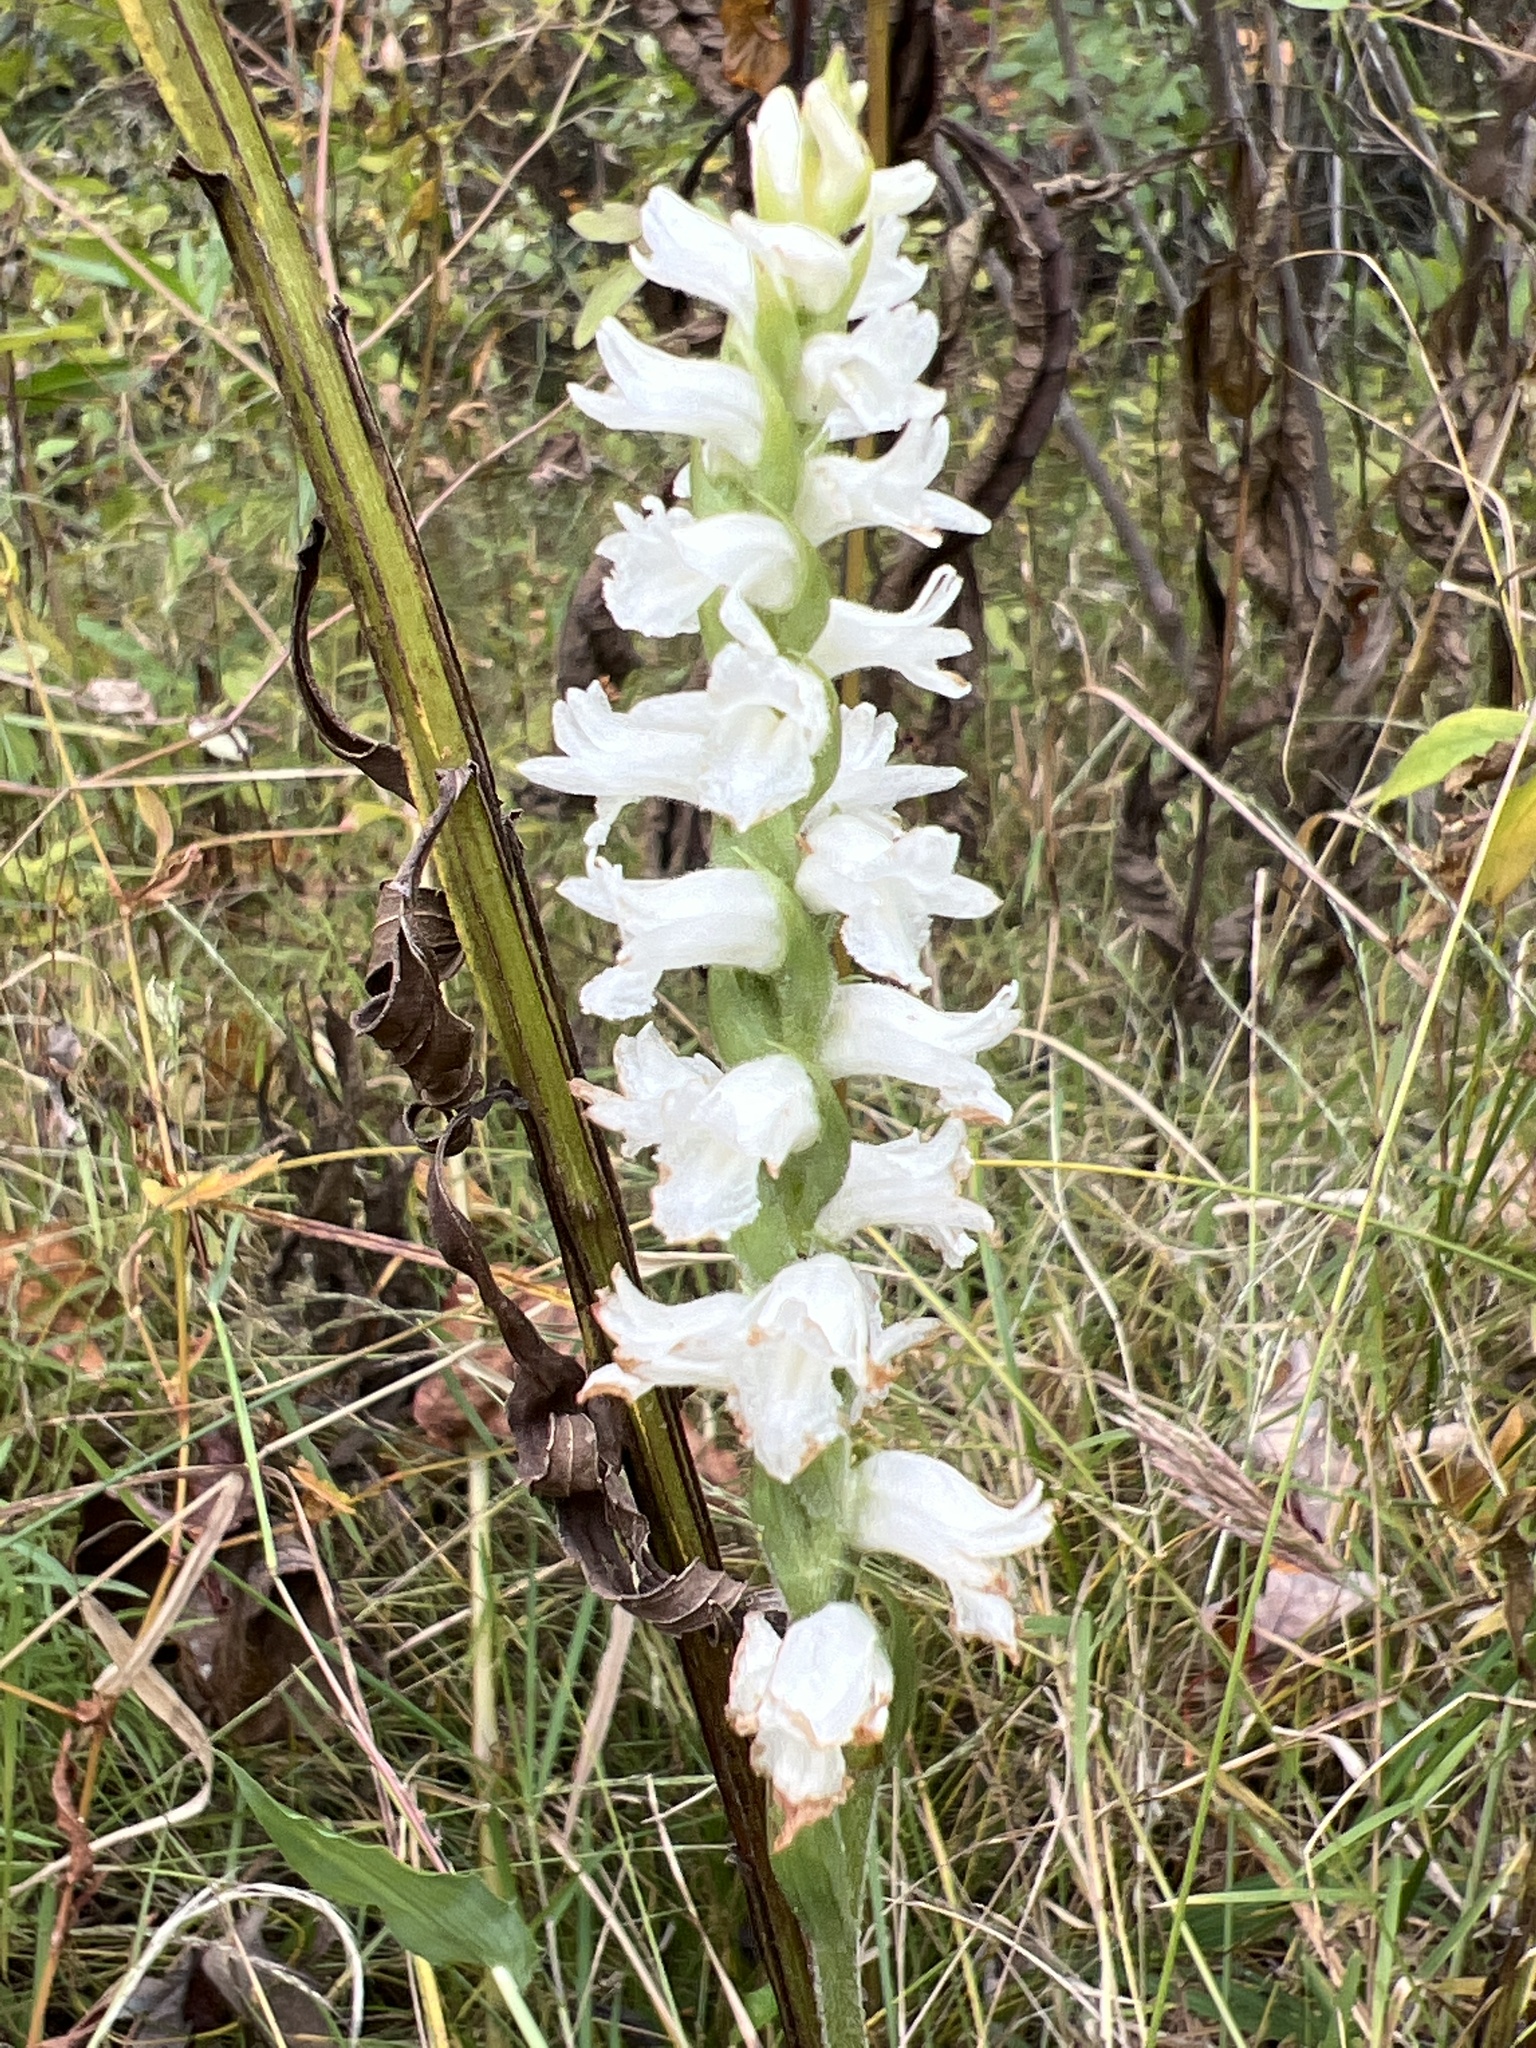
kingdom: Plantae
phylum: Tracheophyta
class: Liliopsida
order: Asparagales
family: Orchidaceae
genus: Spiranthes
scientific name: Spiranthes cernua
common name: Dropping ladies'-tresses
